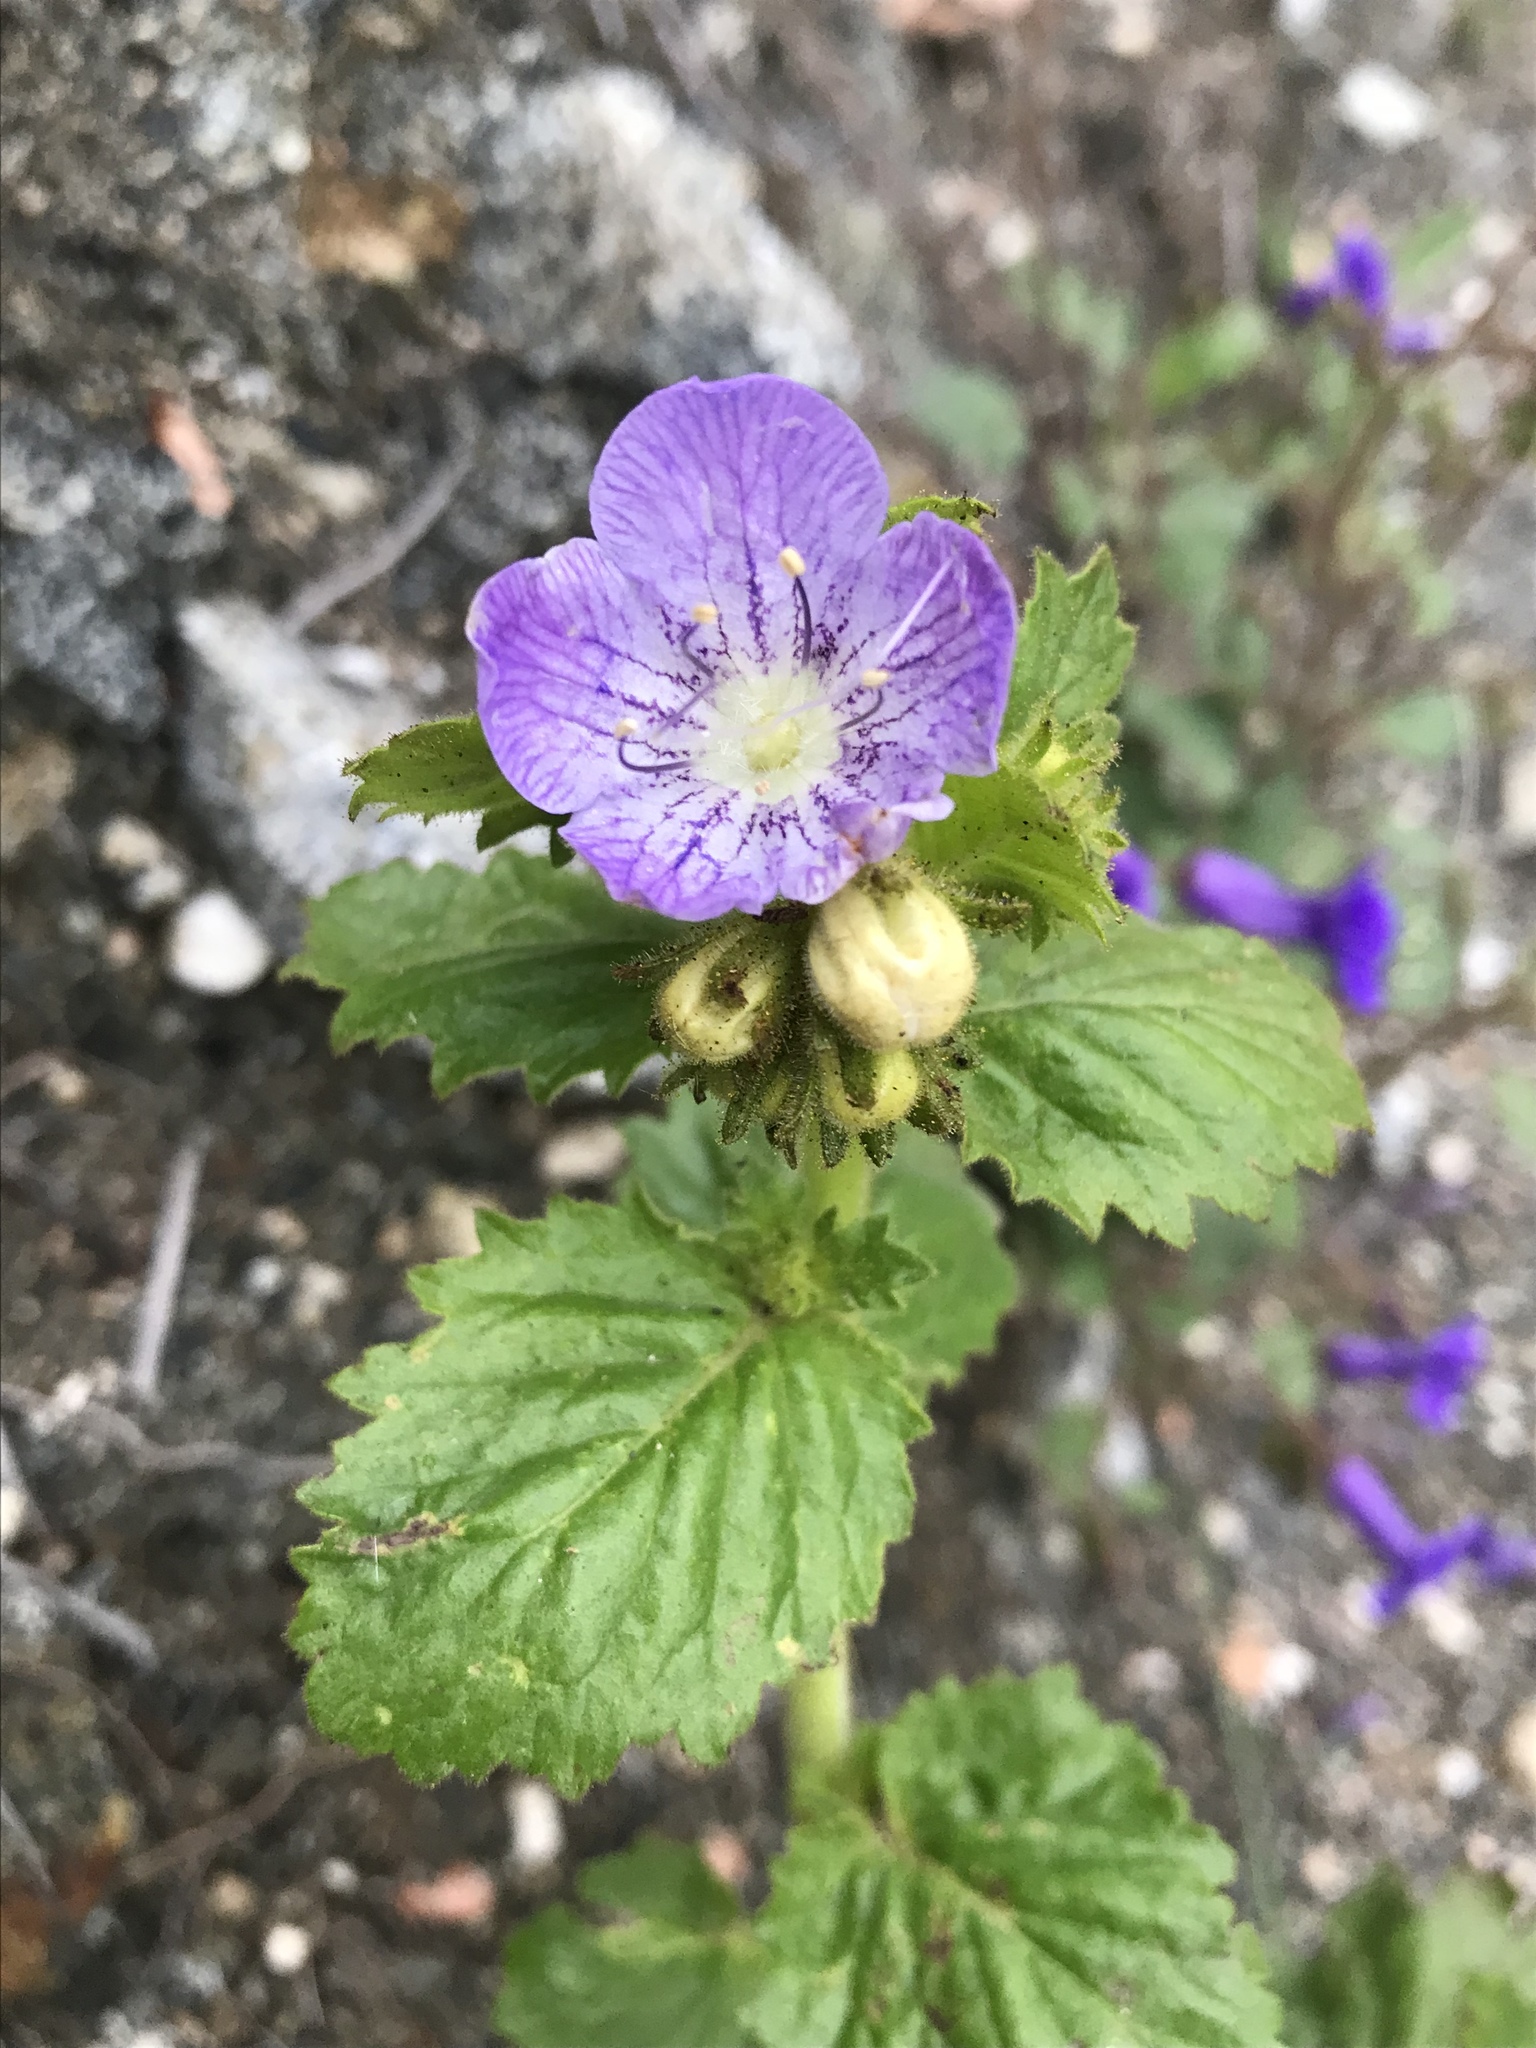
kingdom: Plantae
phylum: Tracheophyta
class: Magnoliopsida
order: Boraginales
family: Hydrophyllaceae
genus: Phacelia
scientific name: Phacelia grandiflora
